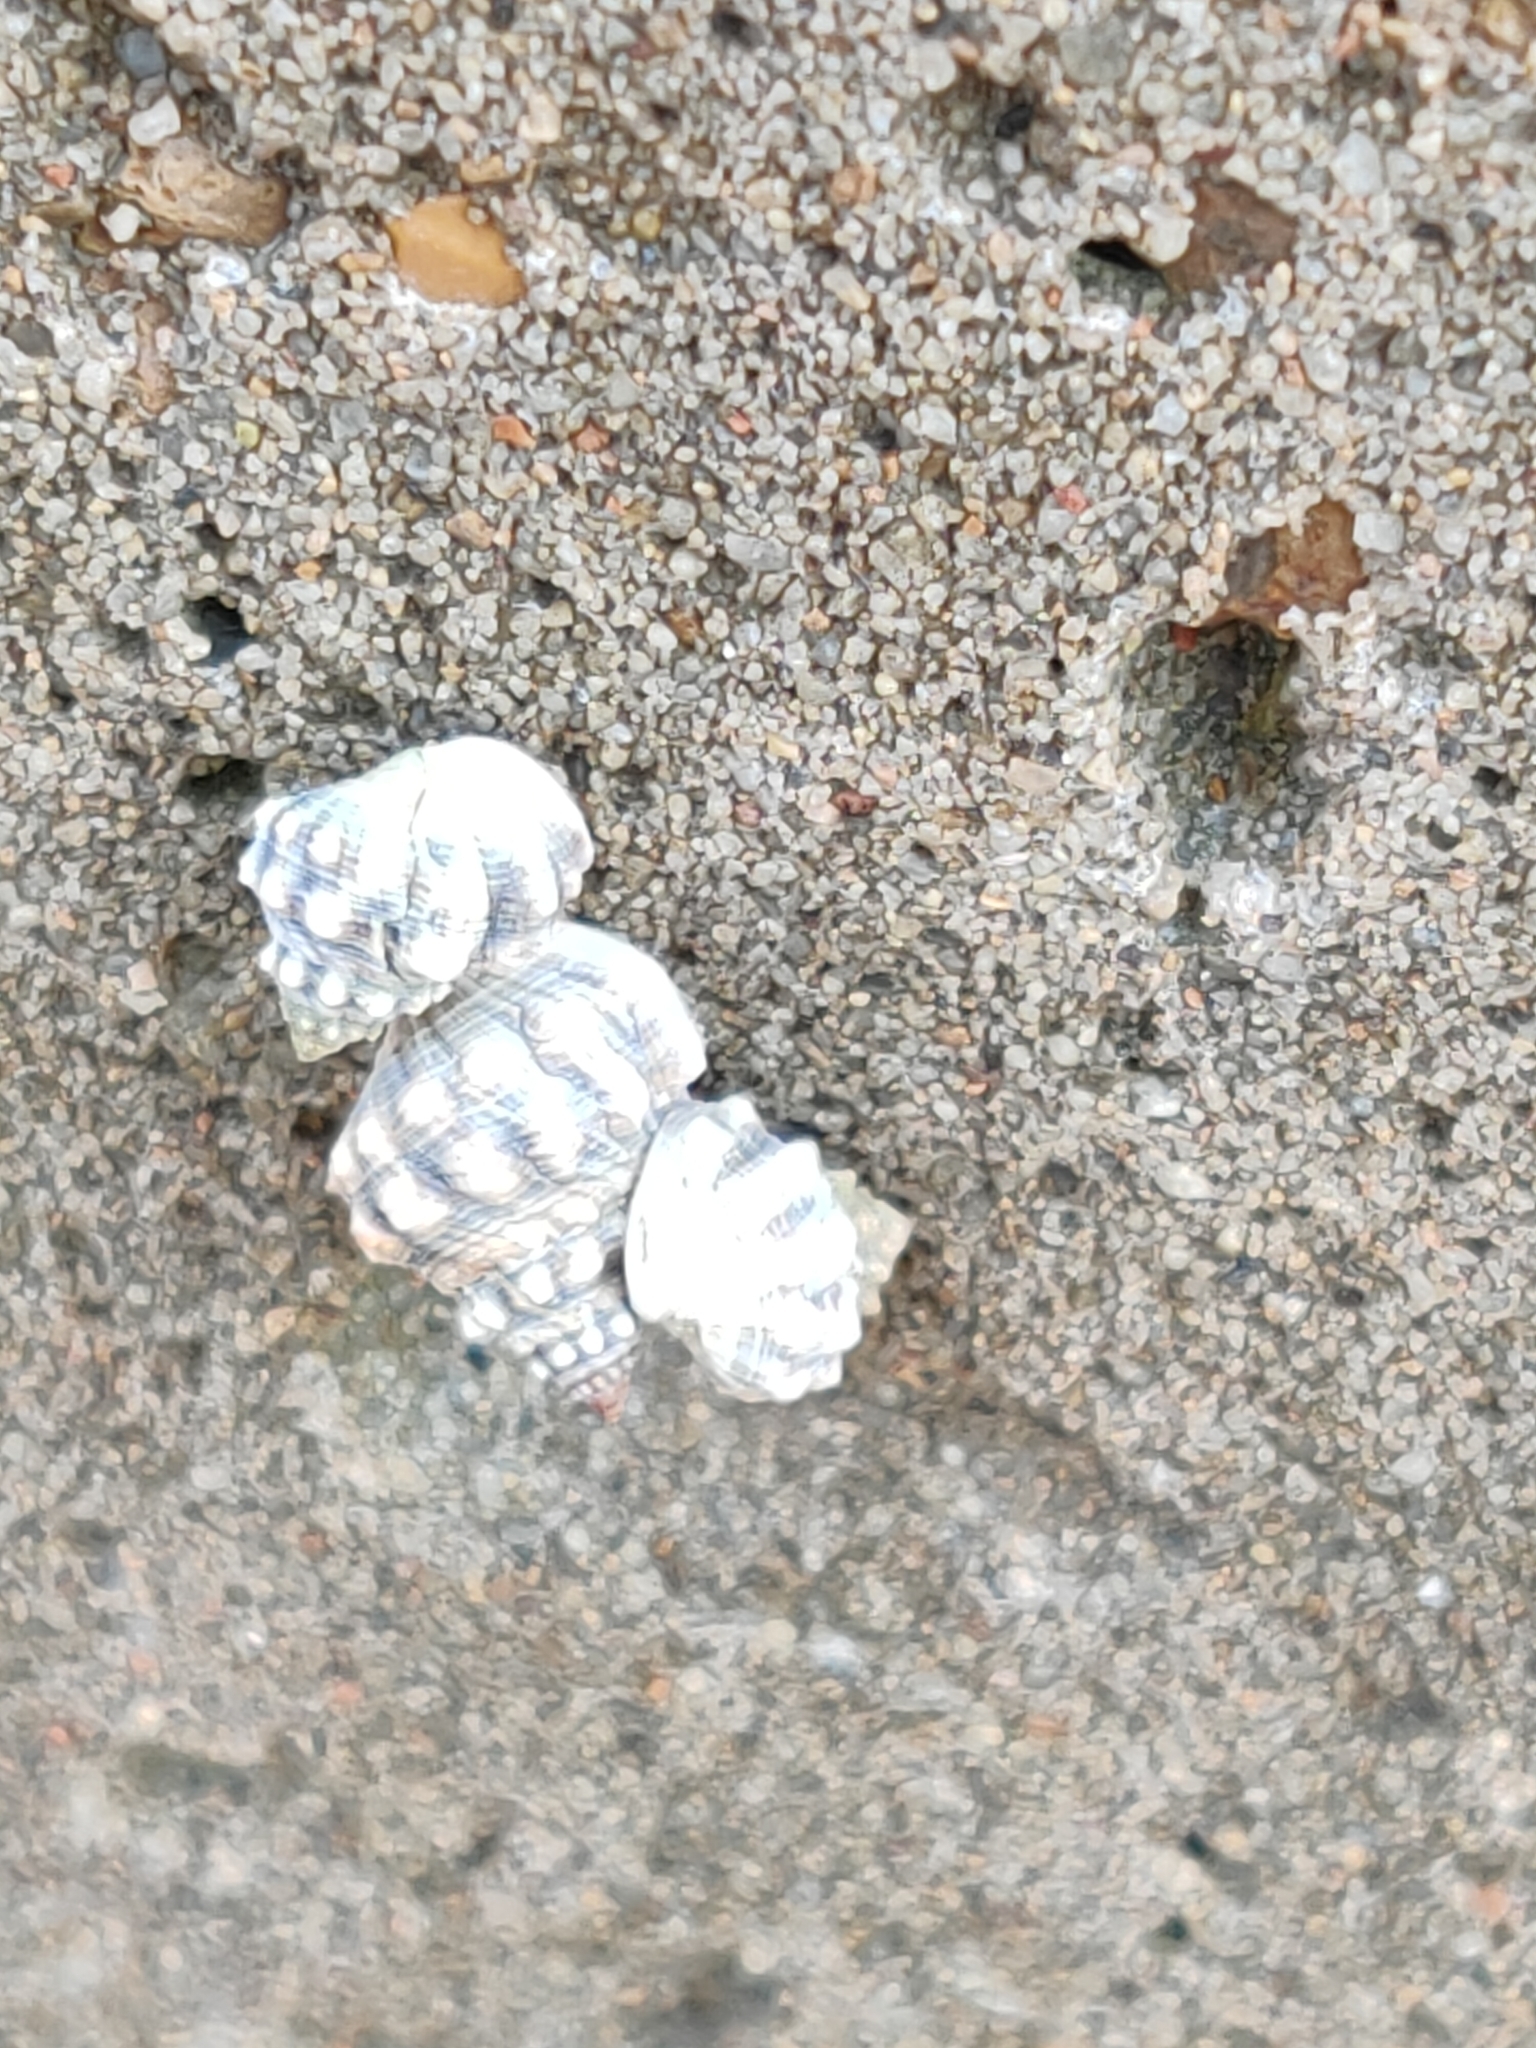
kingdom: Animalia
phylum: Mollusca
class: Gastropoda
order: Littorinimorpha
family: Littorinidae
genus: Nodilittorina
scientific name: Nodilittorina pyramidalis
